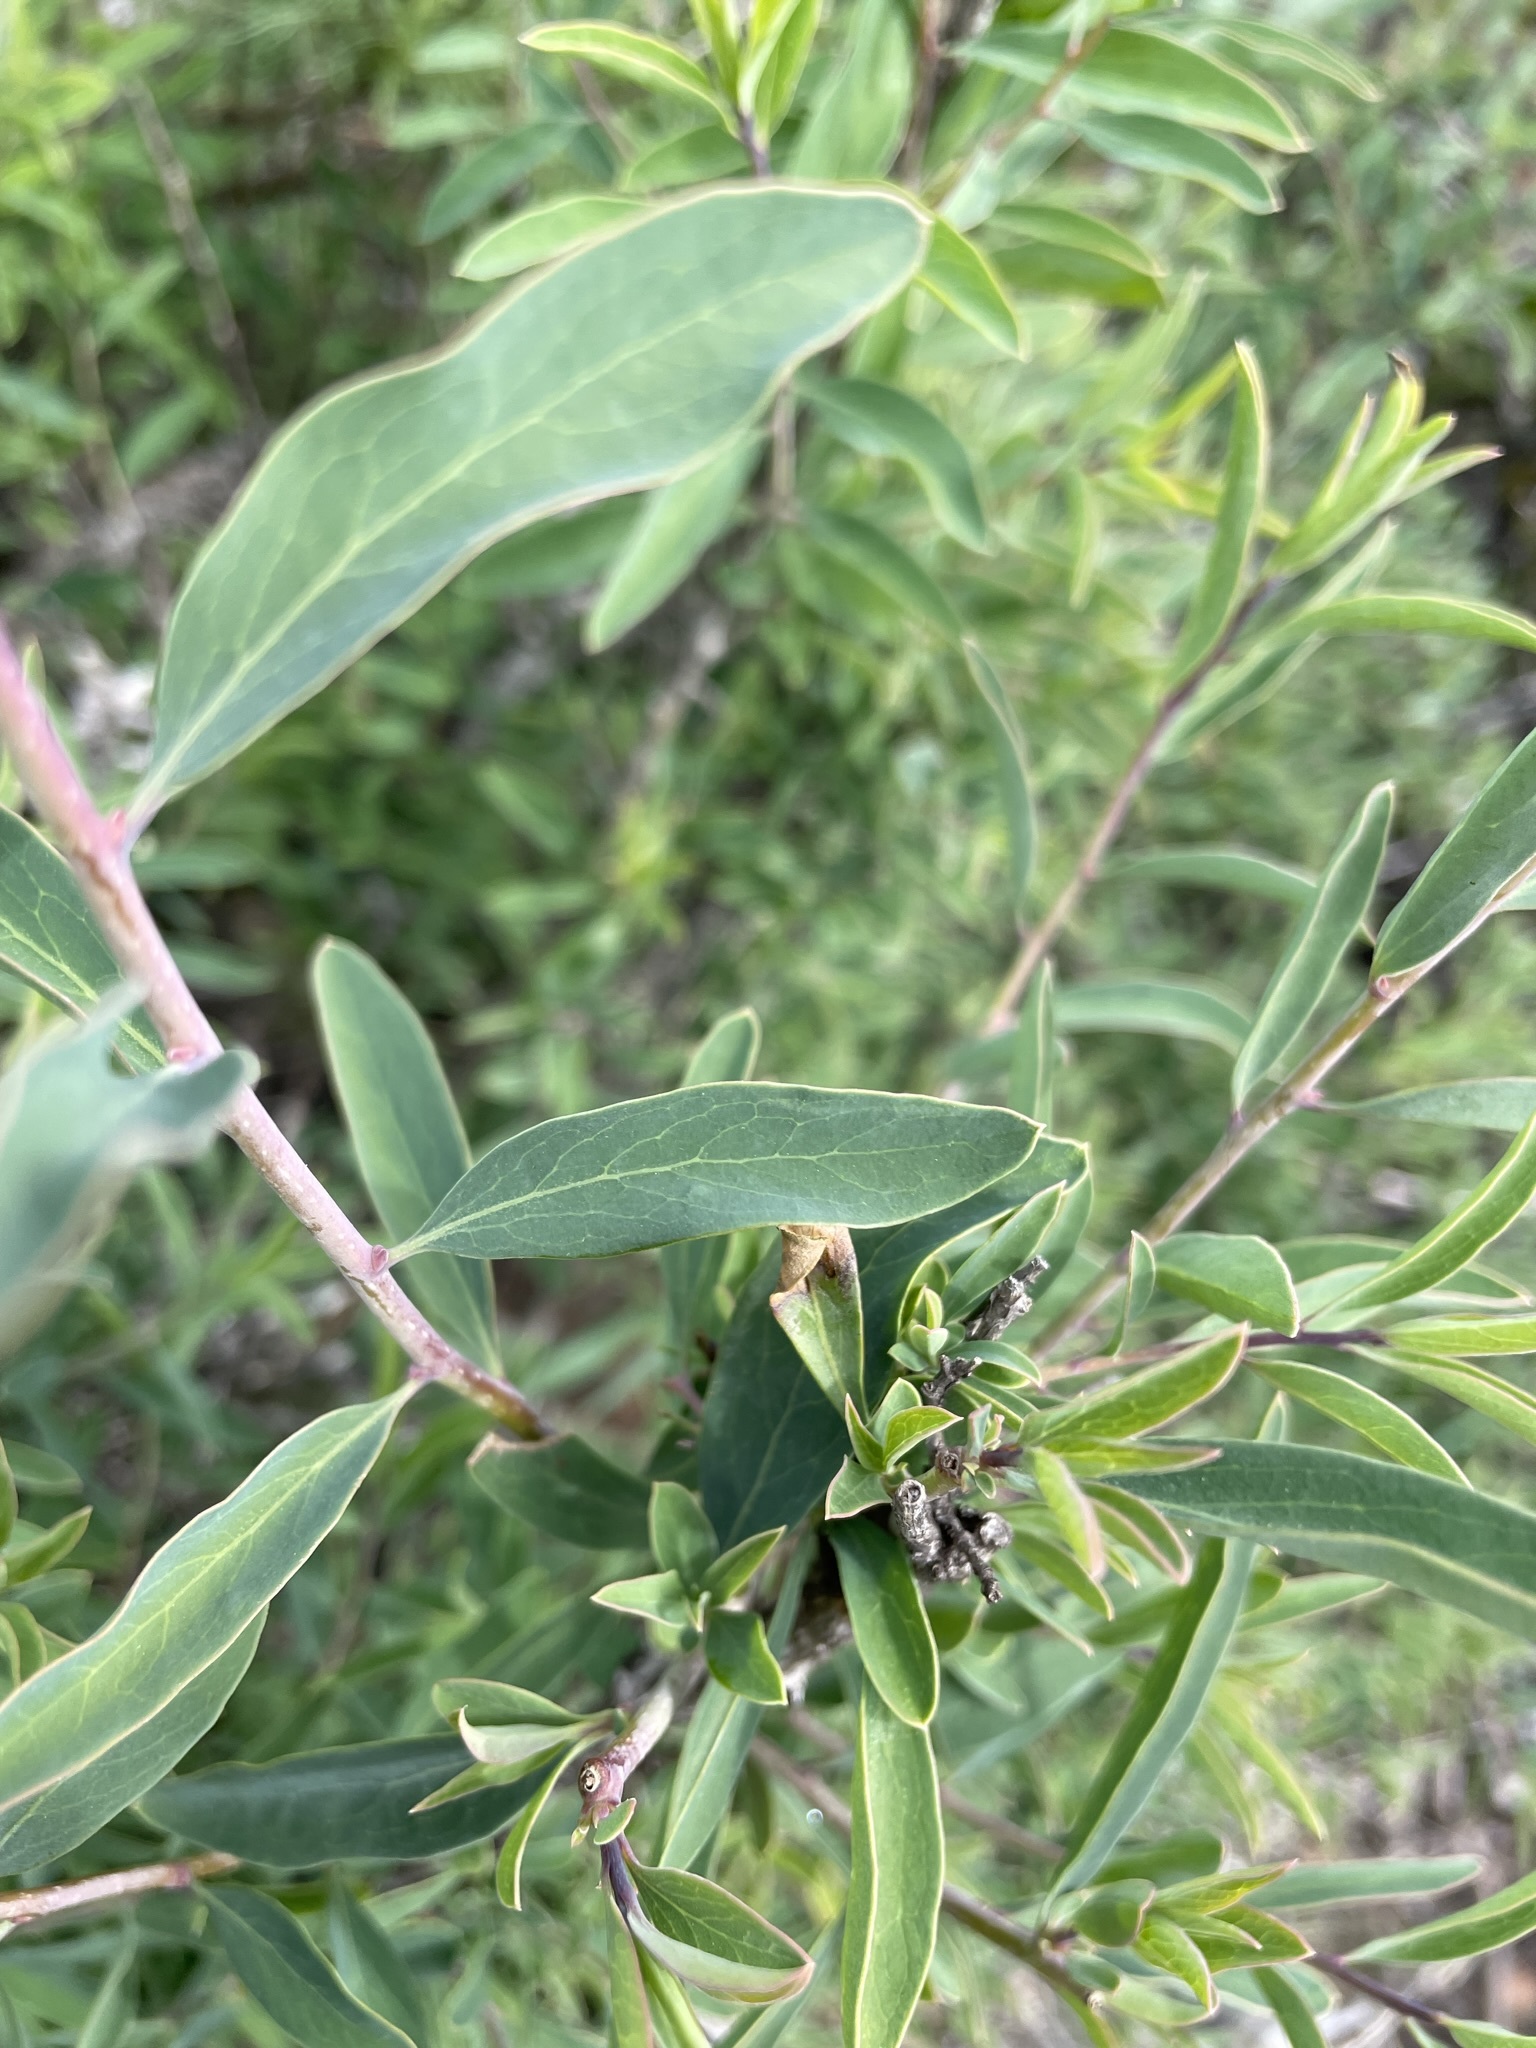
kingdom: Plantae
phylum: Tracheophyta
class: Magnoliopsida
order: Crossosomatales
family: Crossosomataceae
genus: Crossosoma
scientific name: Crossosoma californicum
